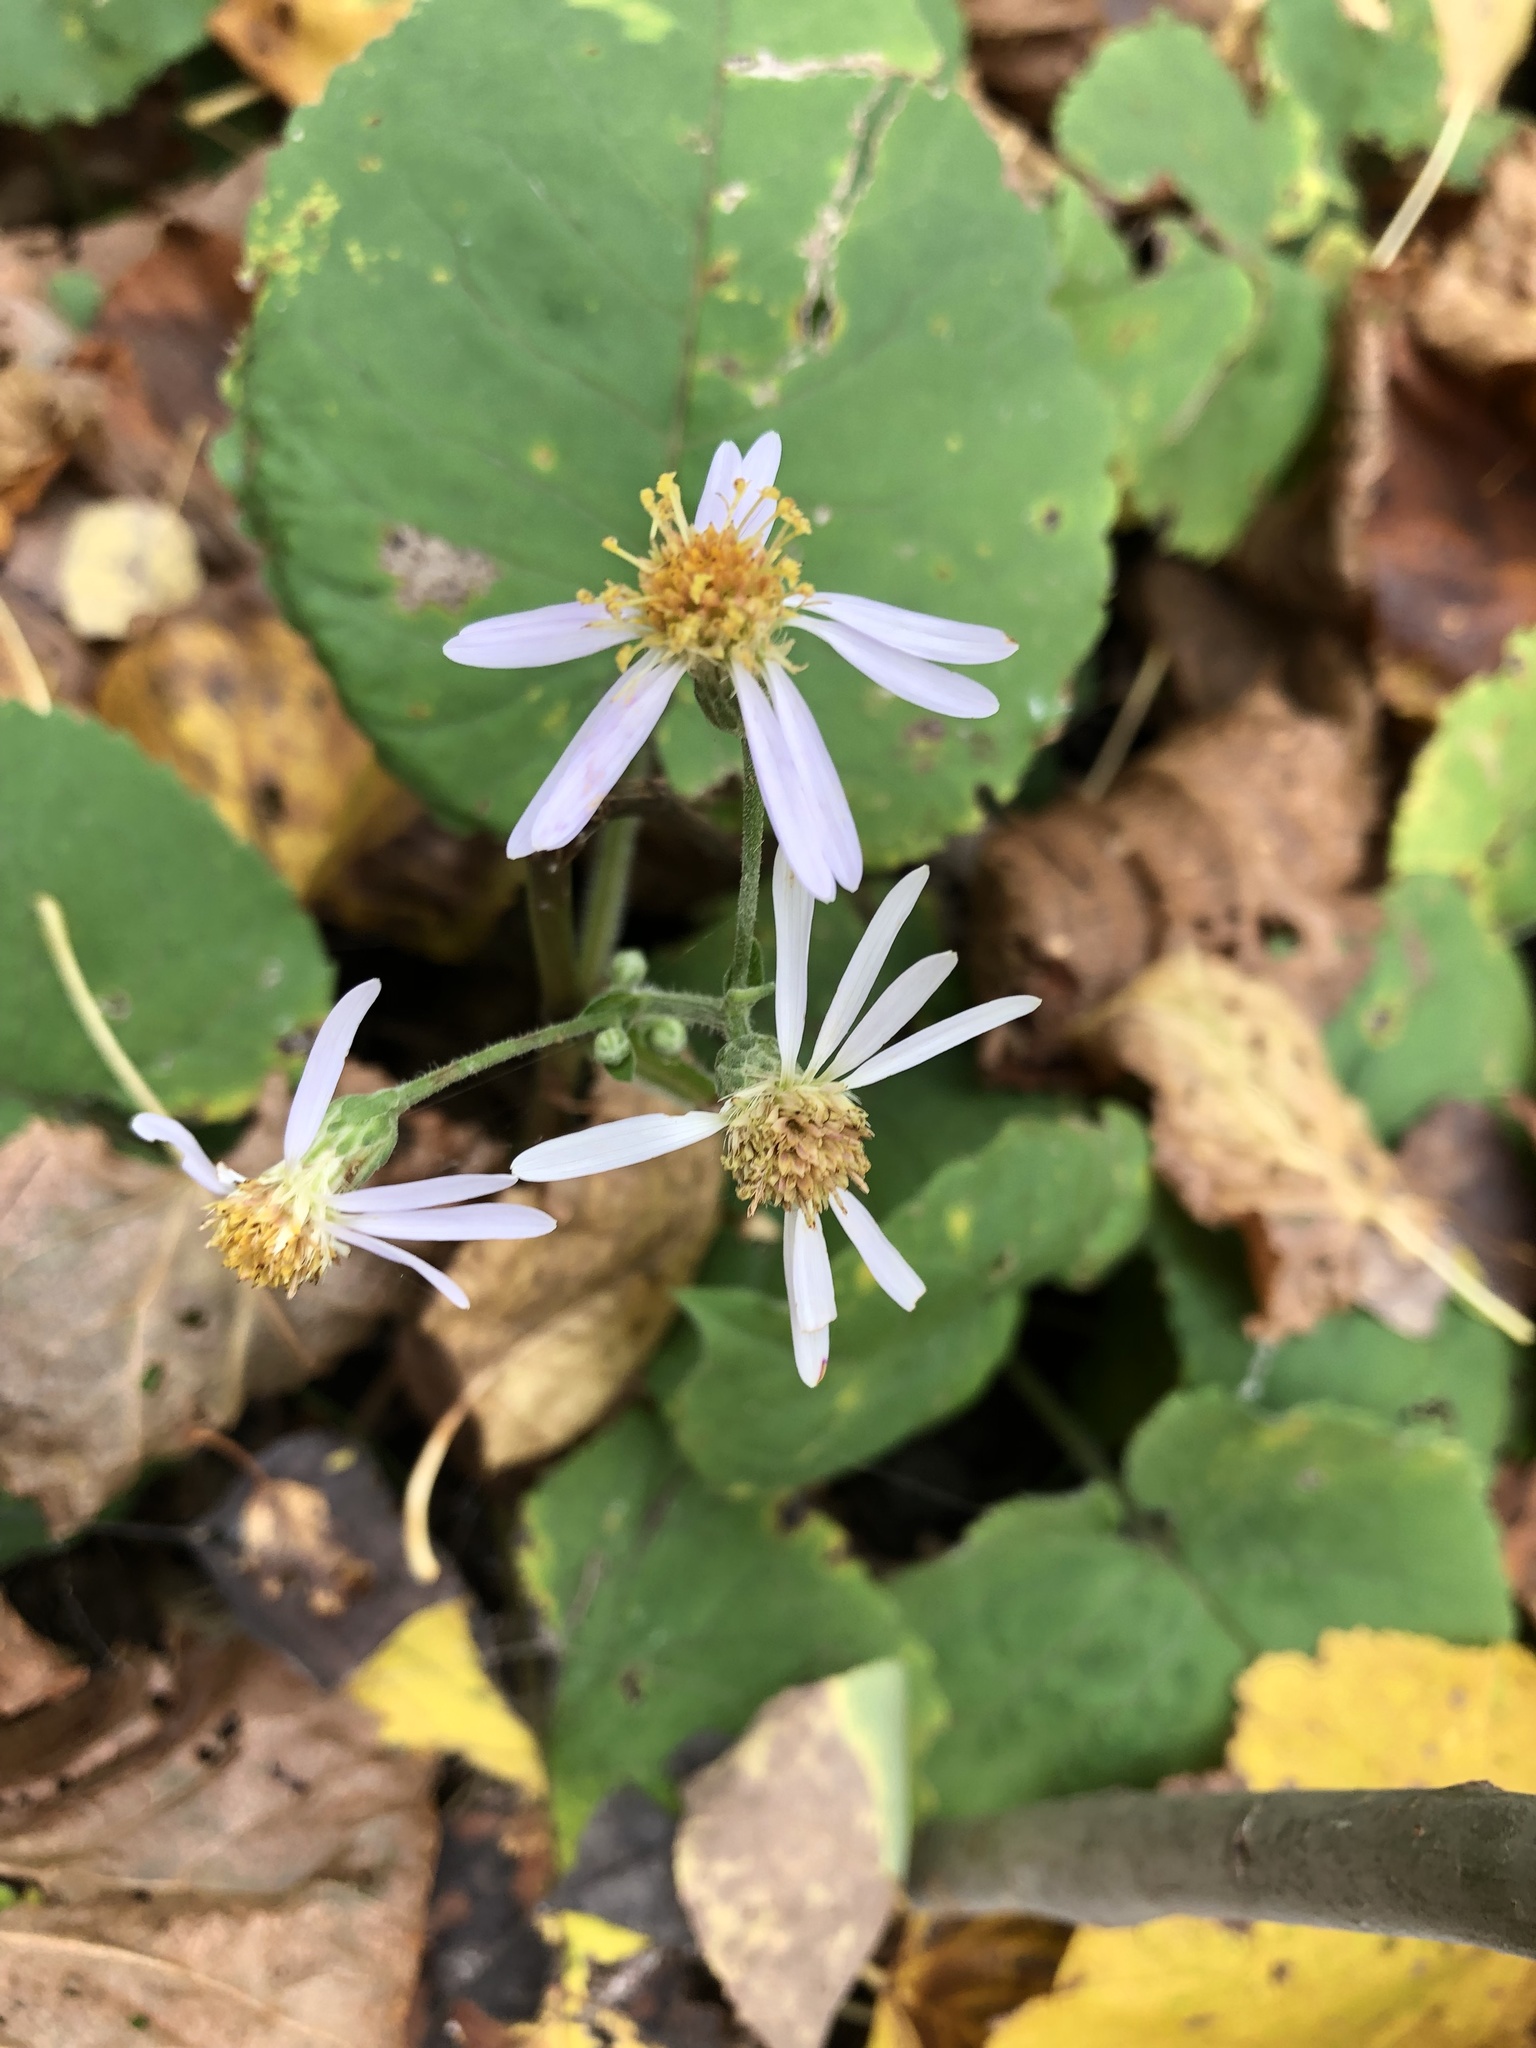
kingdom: Plantae
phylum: Tracheophyta
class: Magnoliopsida
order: Asterales
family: Asteraceae
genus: Eurybia
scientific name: Eurybia macrophylla
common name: Big-leaved aster
